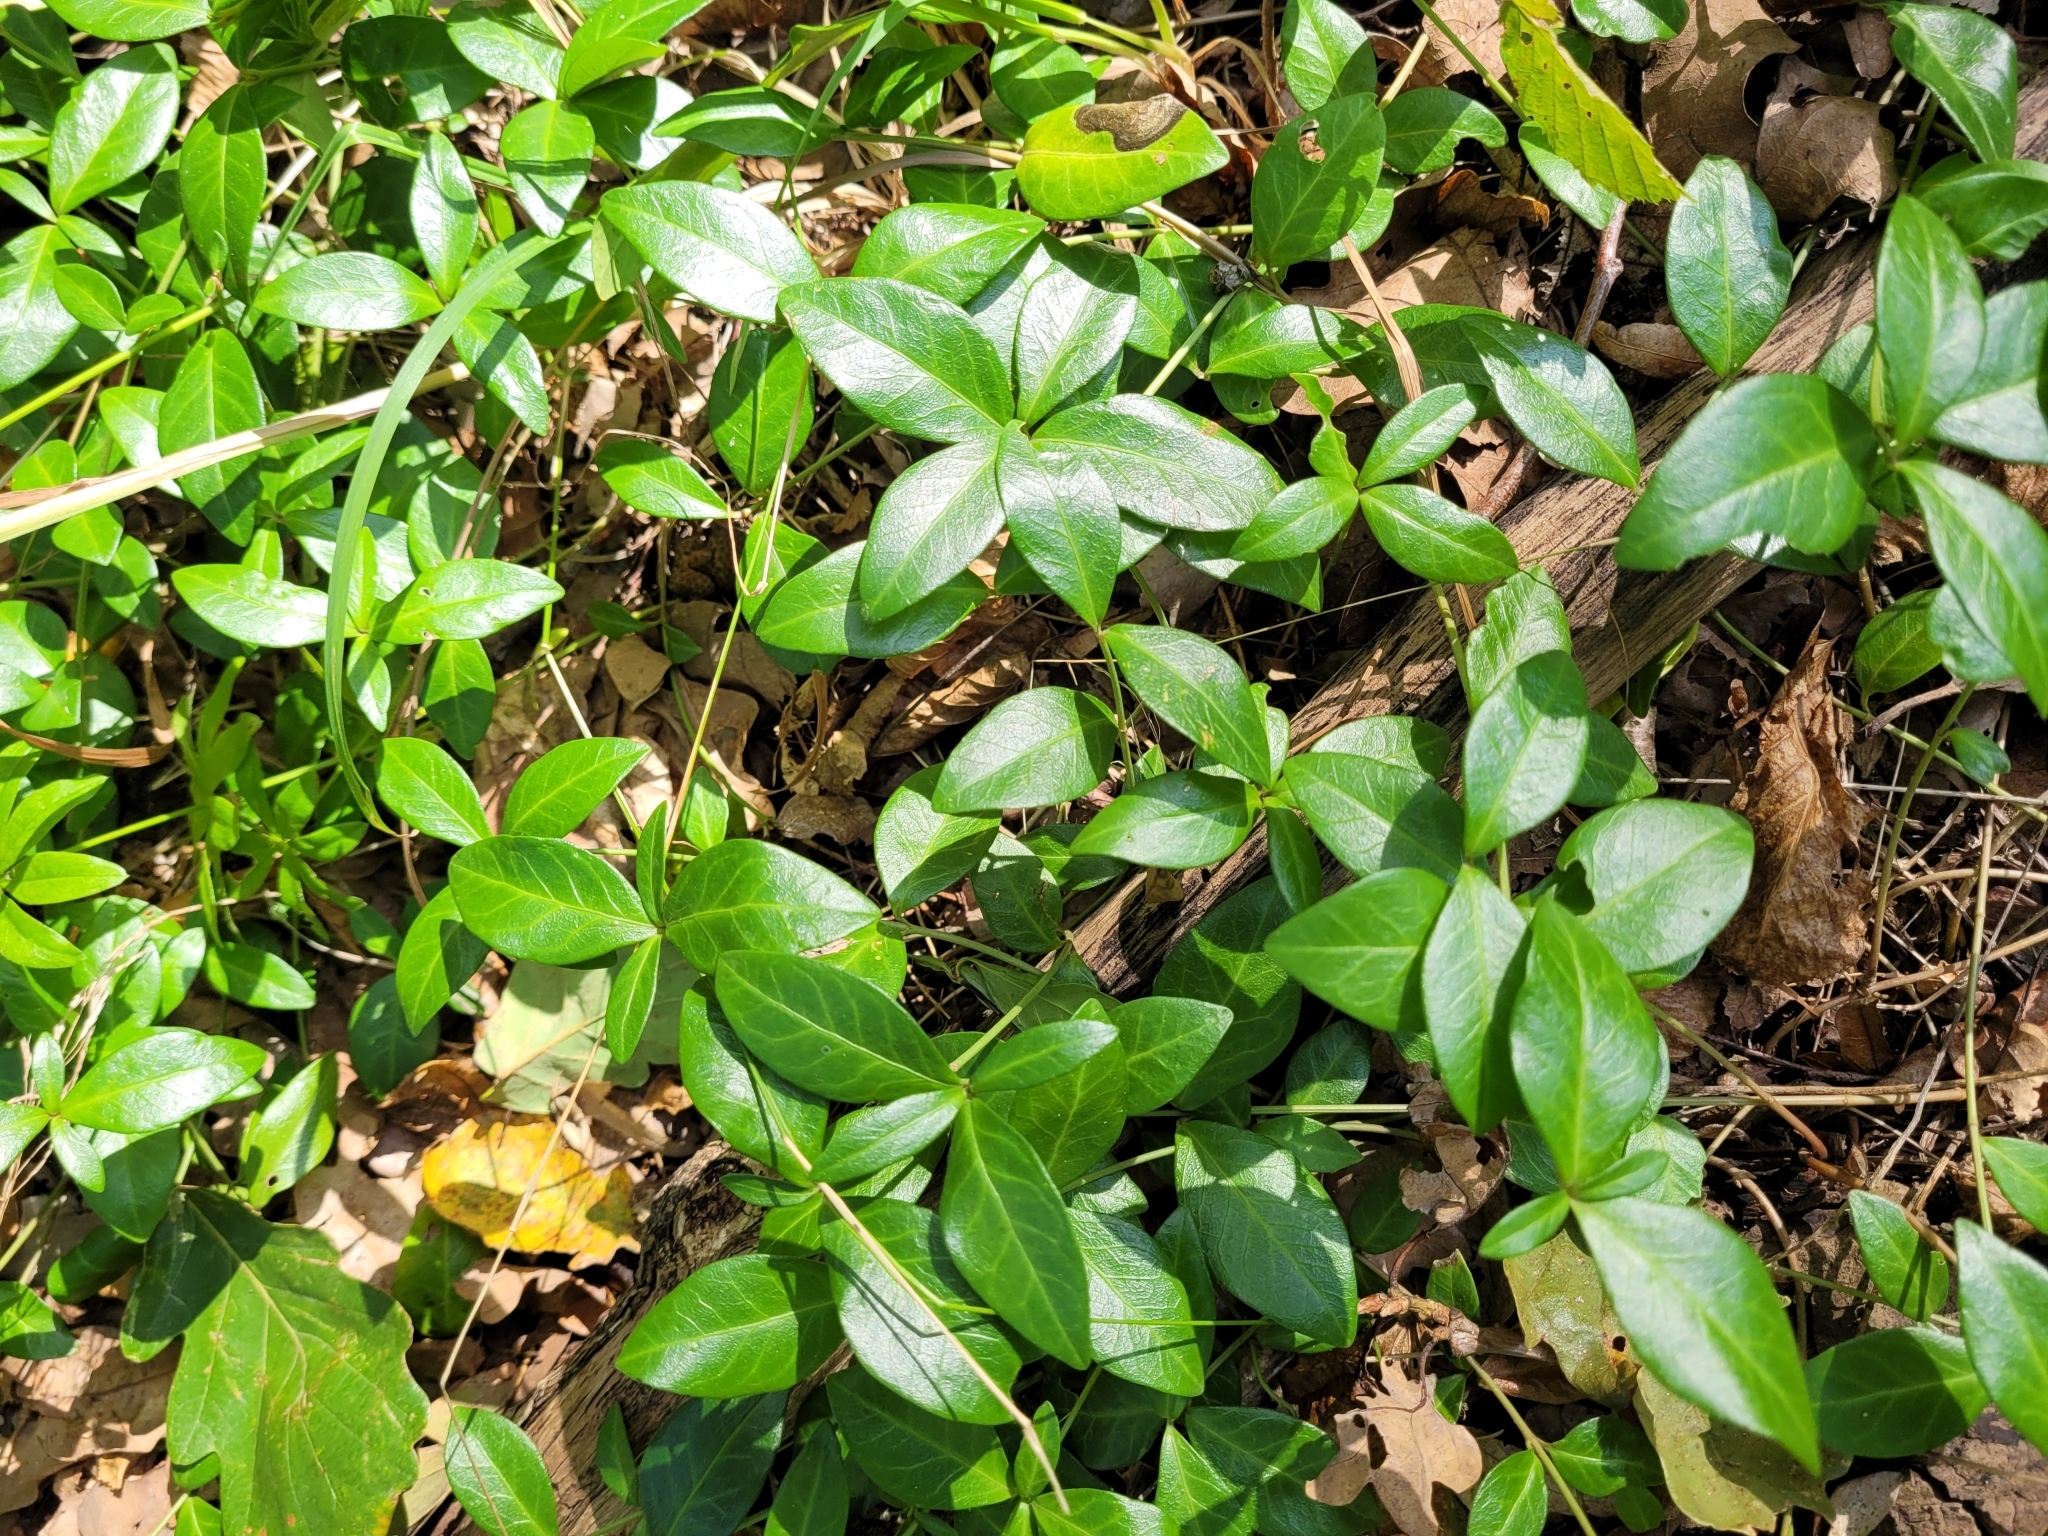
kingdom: Plantae
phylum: Tracheophyta
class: Magnoliopsida
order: Gentianales
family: Apocynaceae
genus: Vinca
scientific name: Vinca minor
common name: Lesser periwinkle
